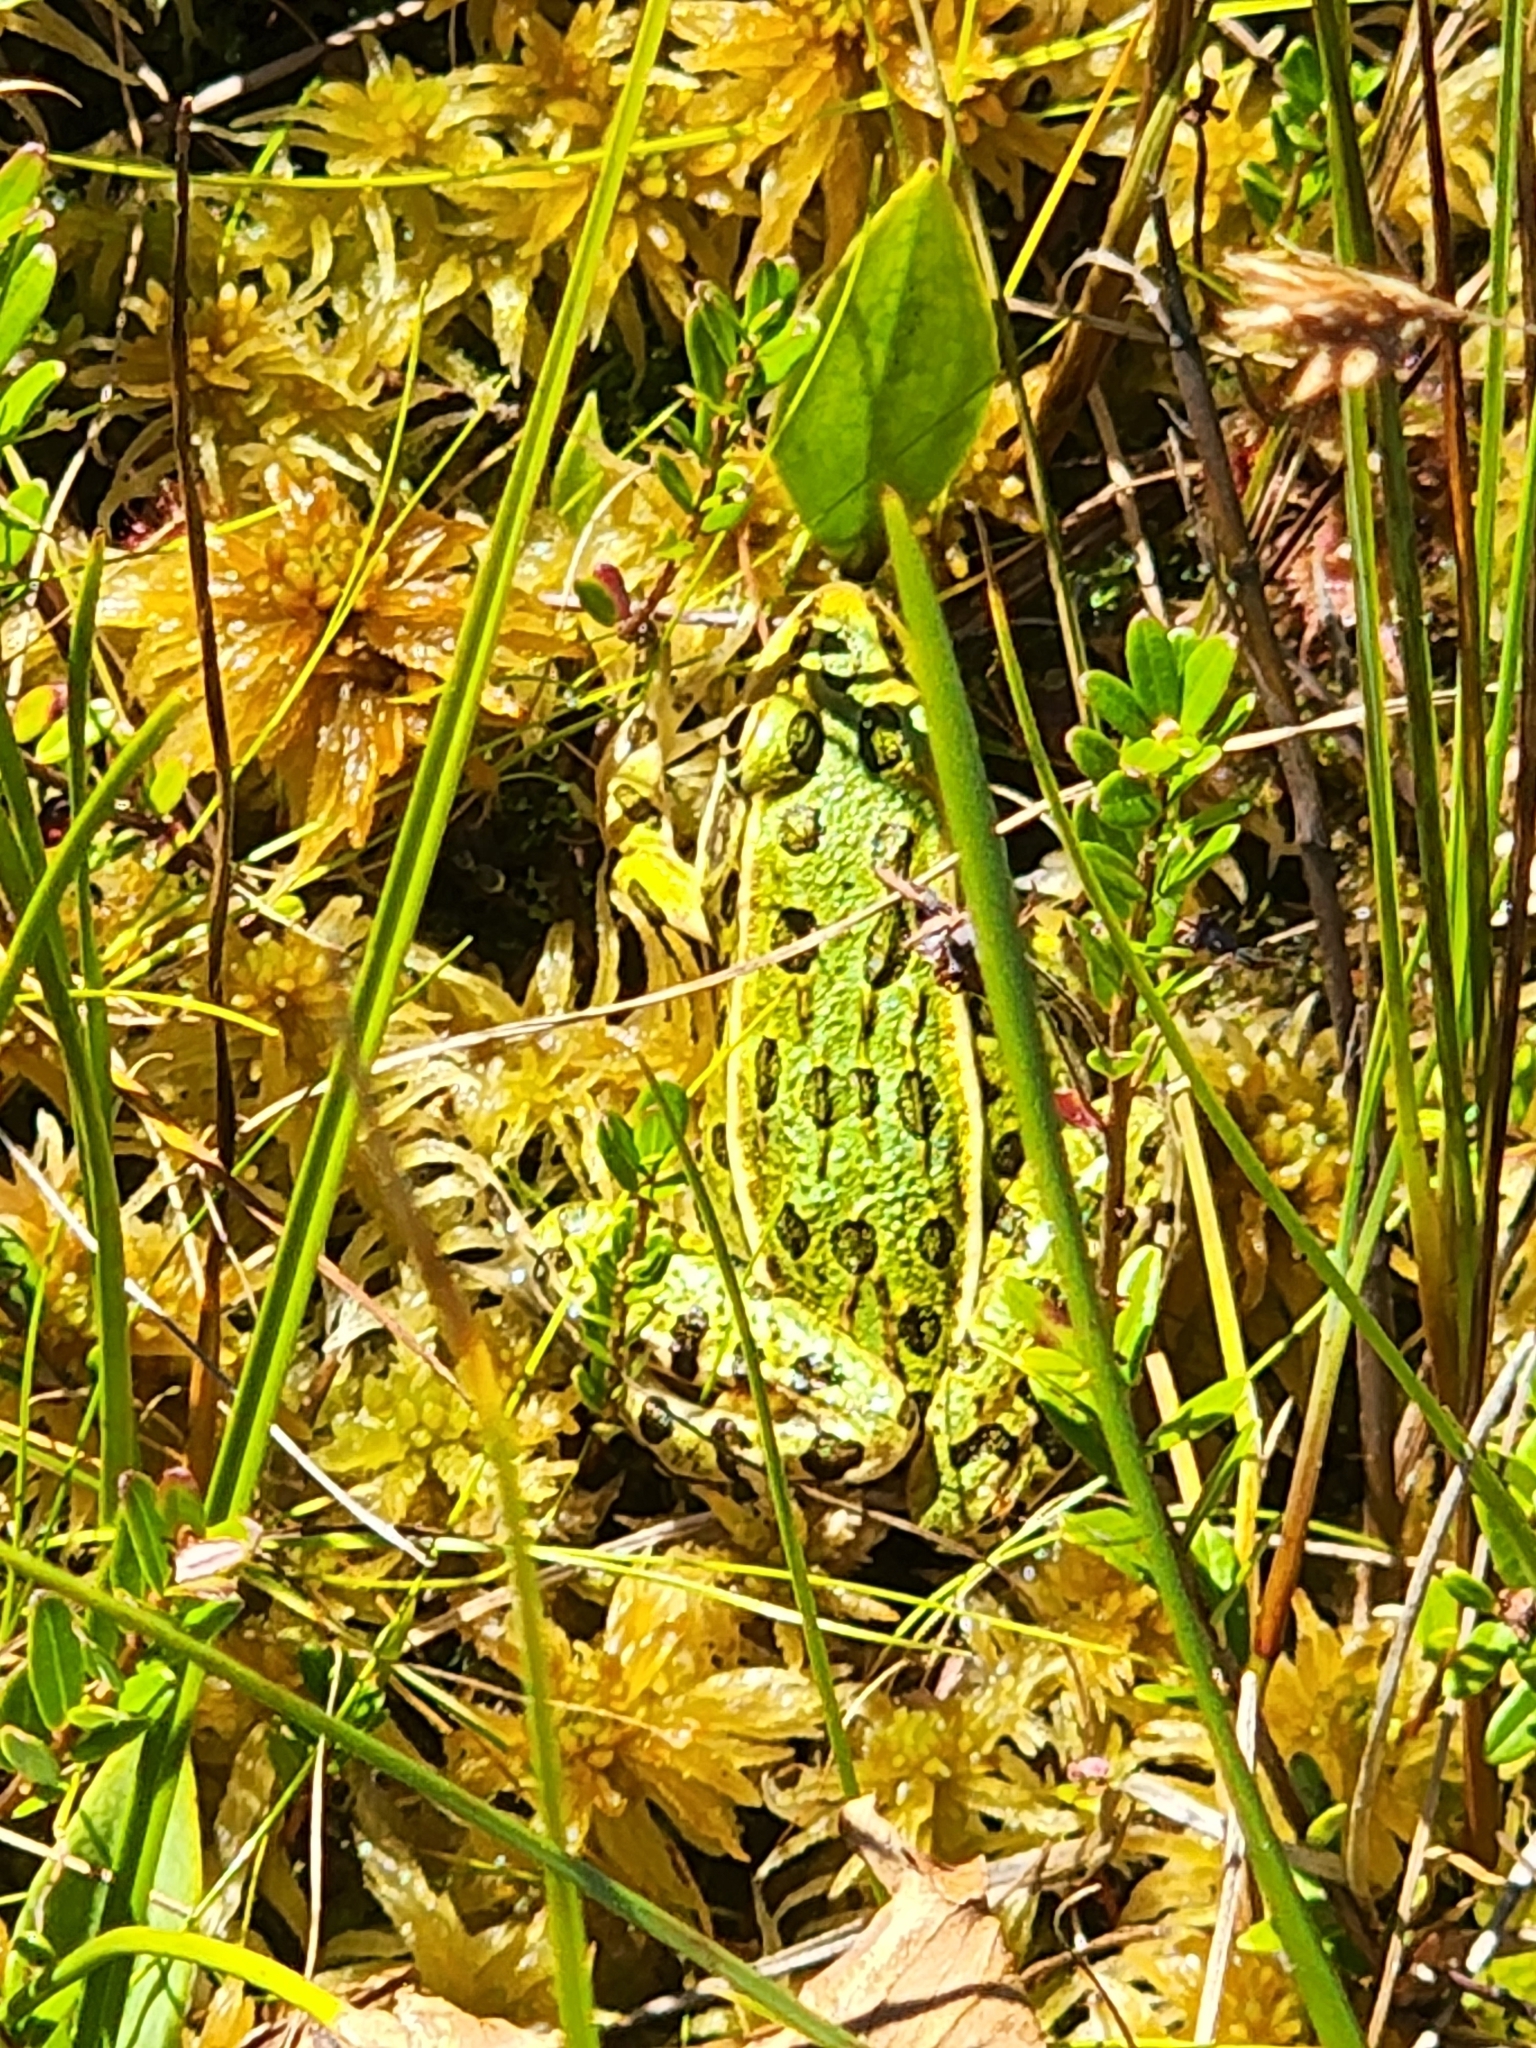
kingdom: Animalia
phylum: Chordata
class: Amphibia
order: Anura
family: Ranidae
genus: Lithobates
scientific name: Lithobates pipiens
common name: Northern leopard frog
